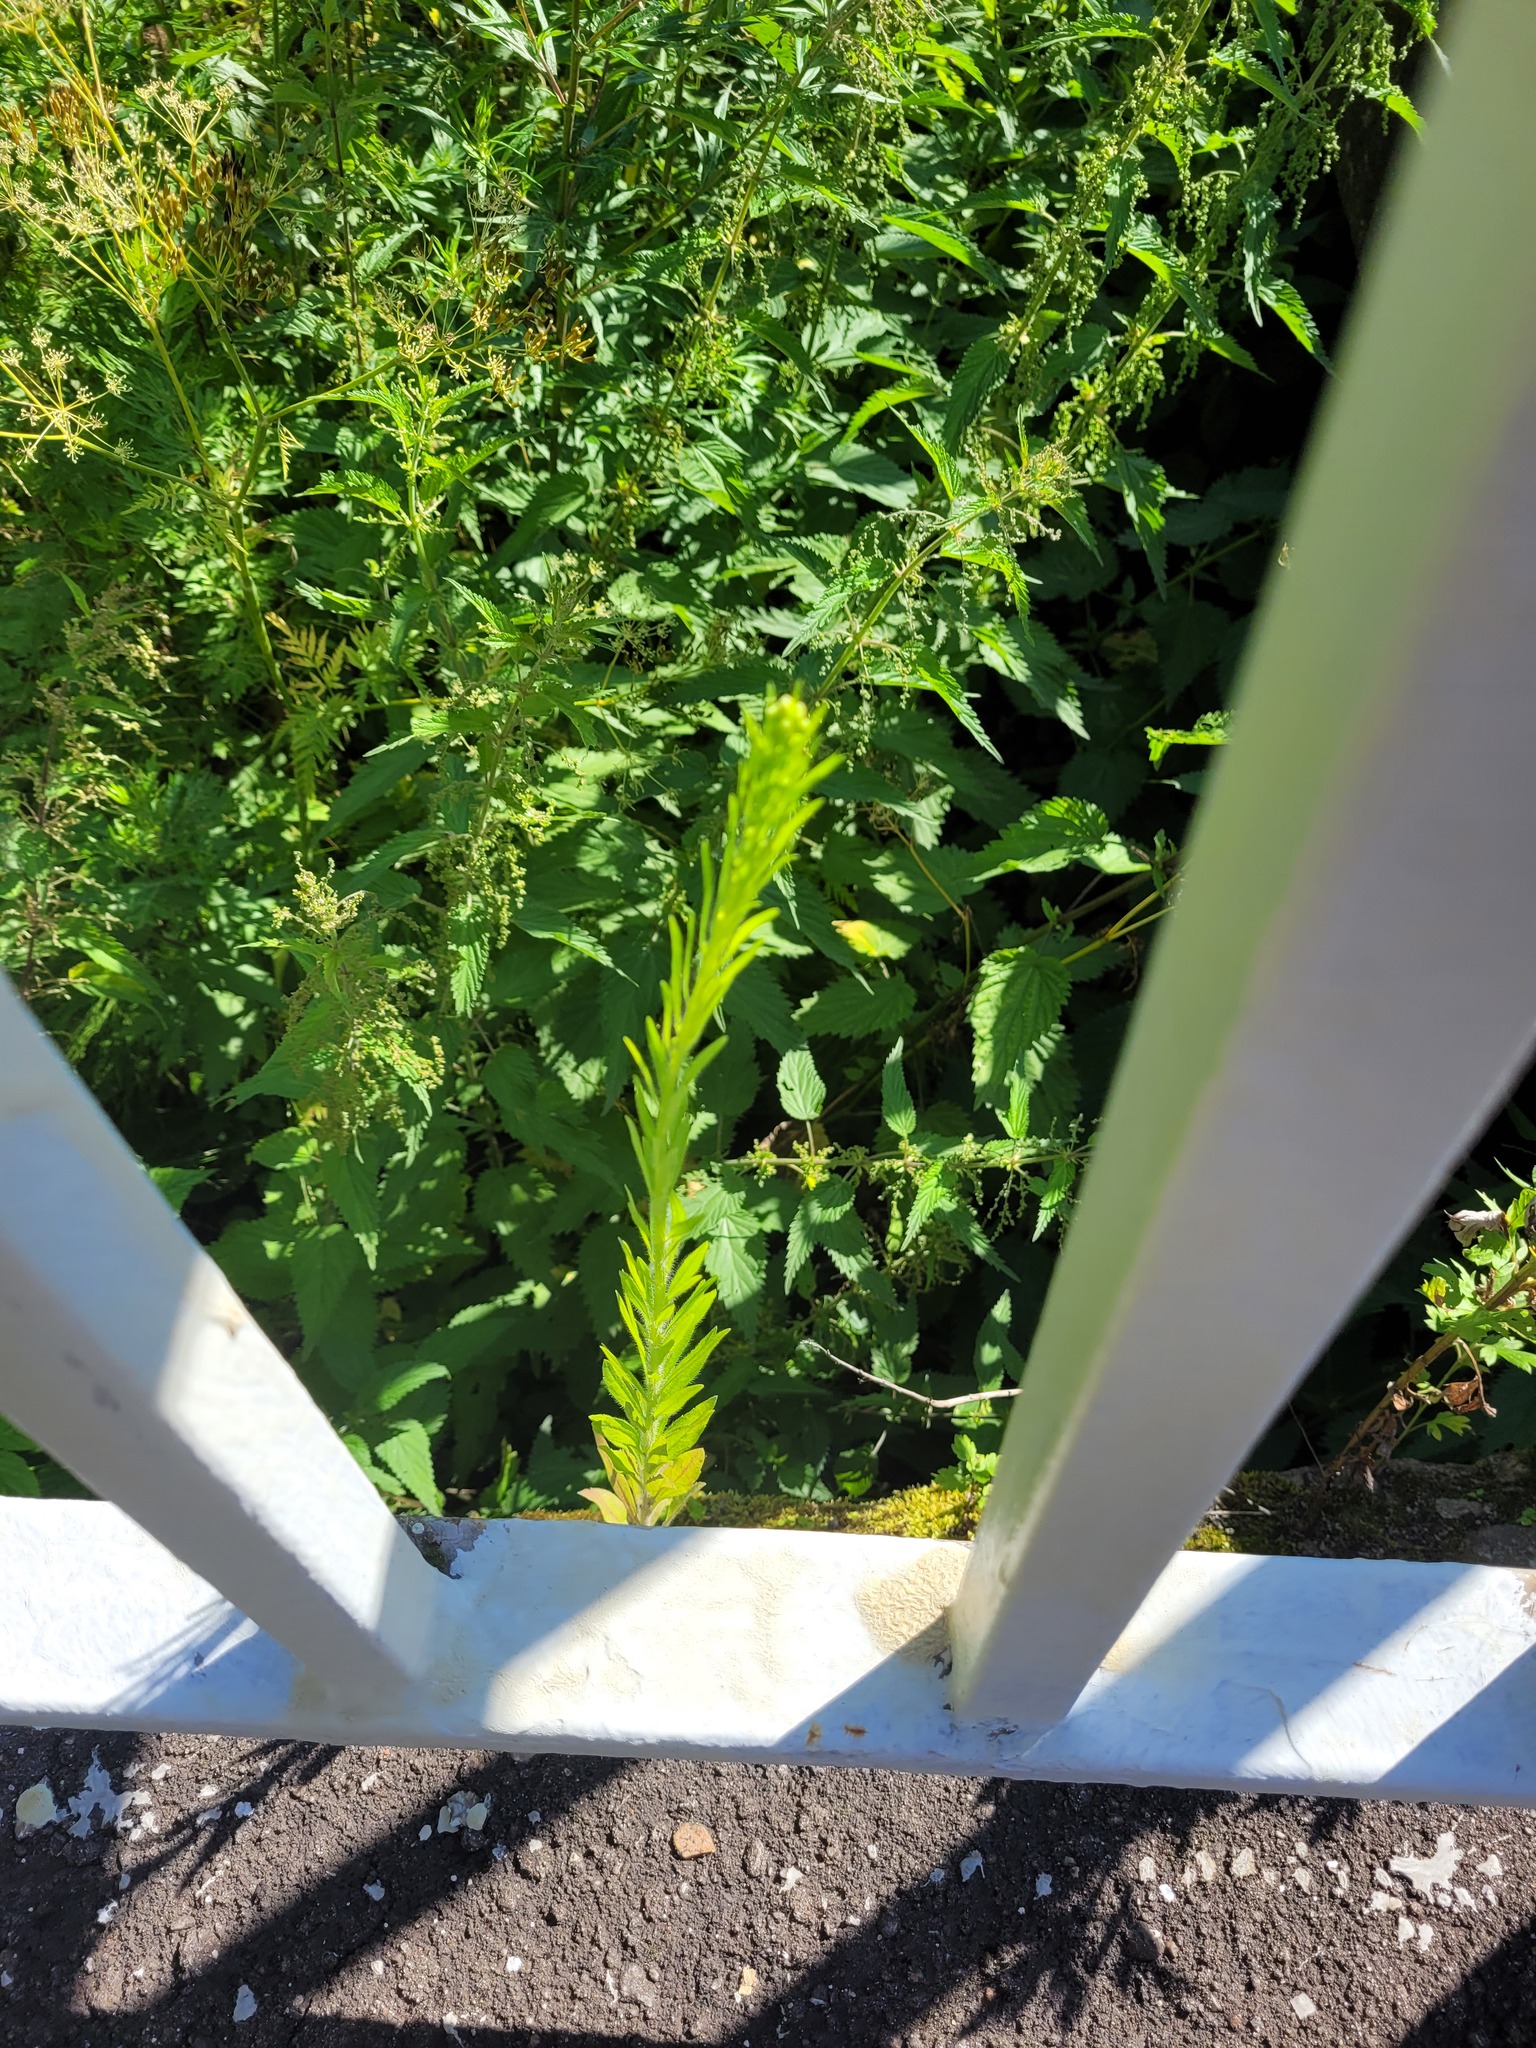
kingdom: Plantae
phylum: Tracheophyta
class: Magnoliopsida
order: Asterales
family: Asteraceae
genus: Erigeron
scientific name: Erigeron canadensis
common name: Canadian fleabane
